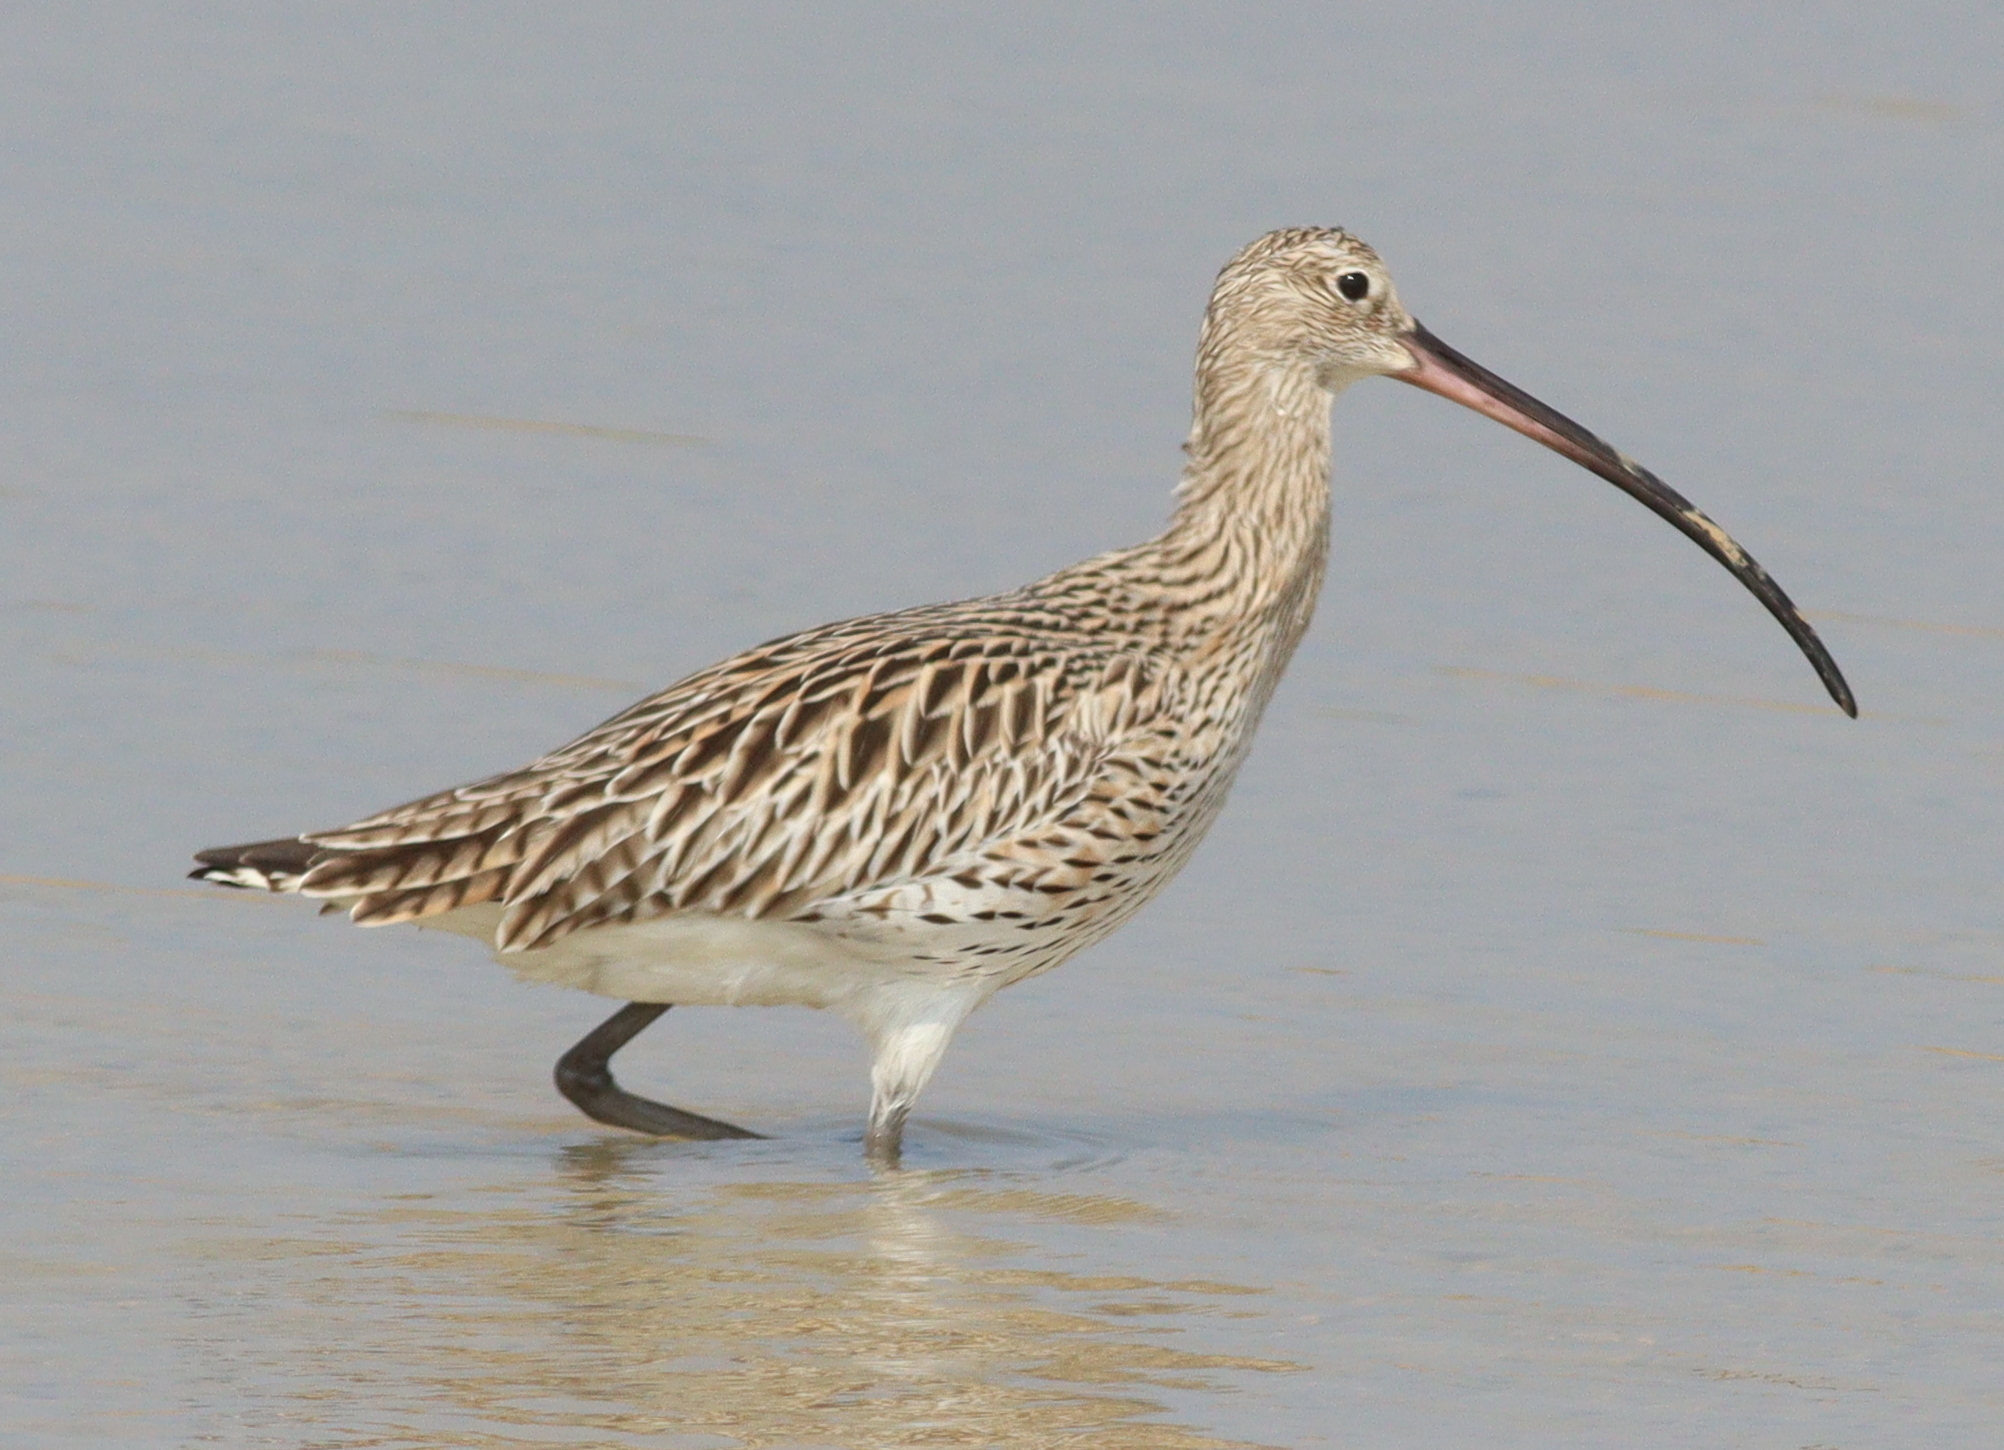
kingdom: Animalia
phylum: Chordata
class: Aves
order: Charadriiformes
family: Scolopacidae
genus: Numenius
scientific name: Numenius arquata
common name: Eurasian curlew
